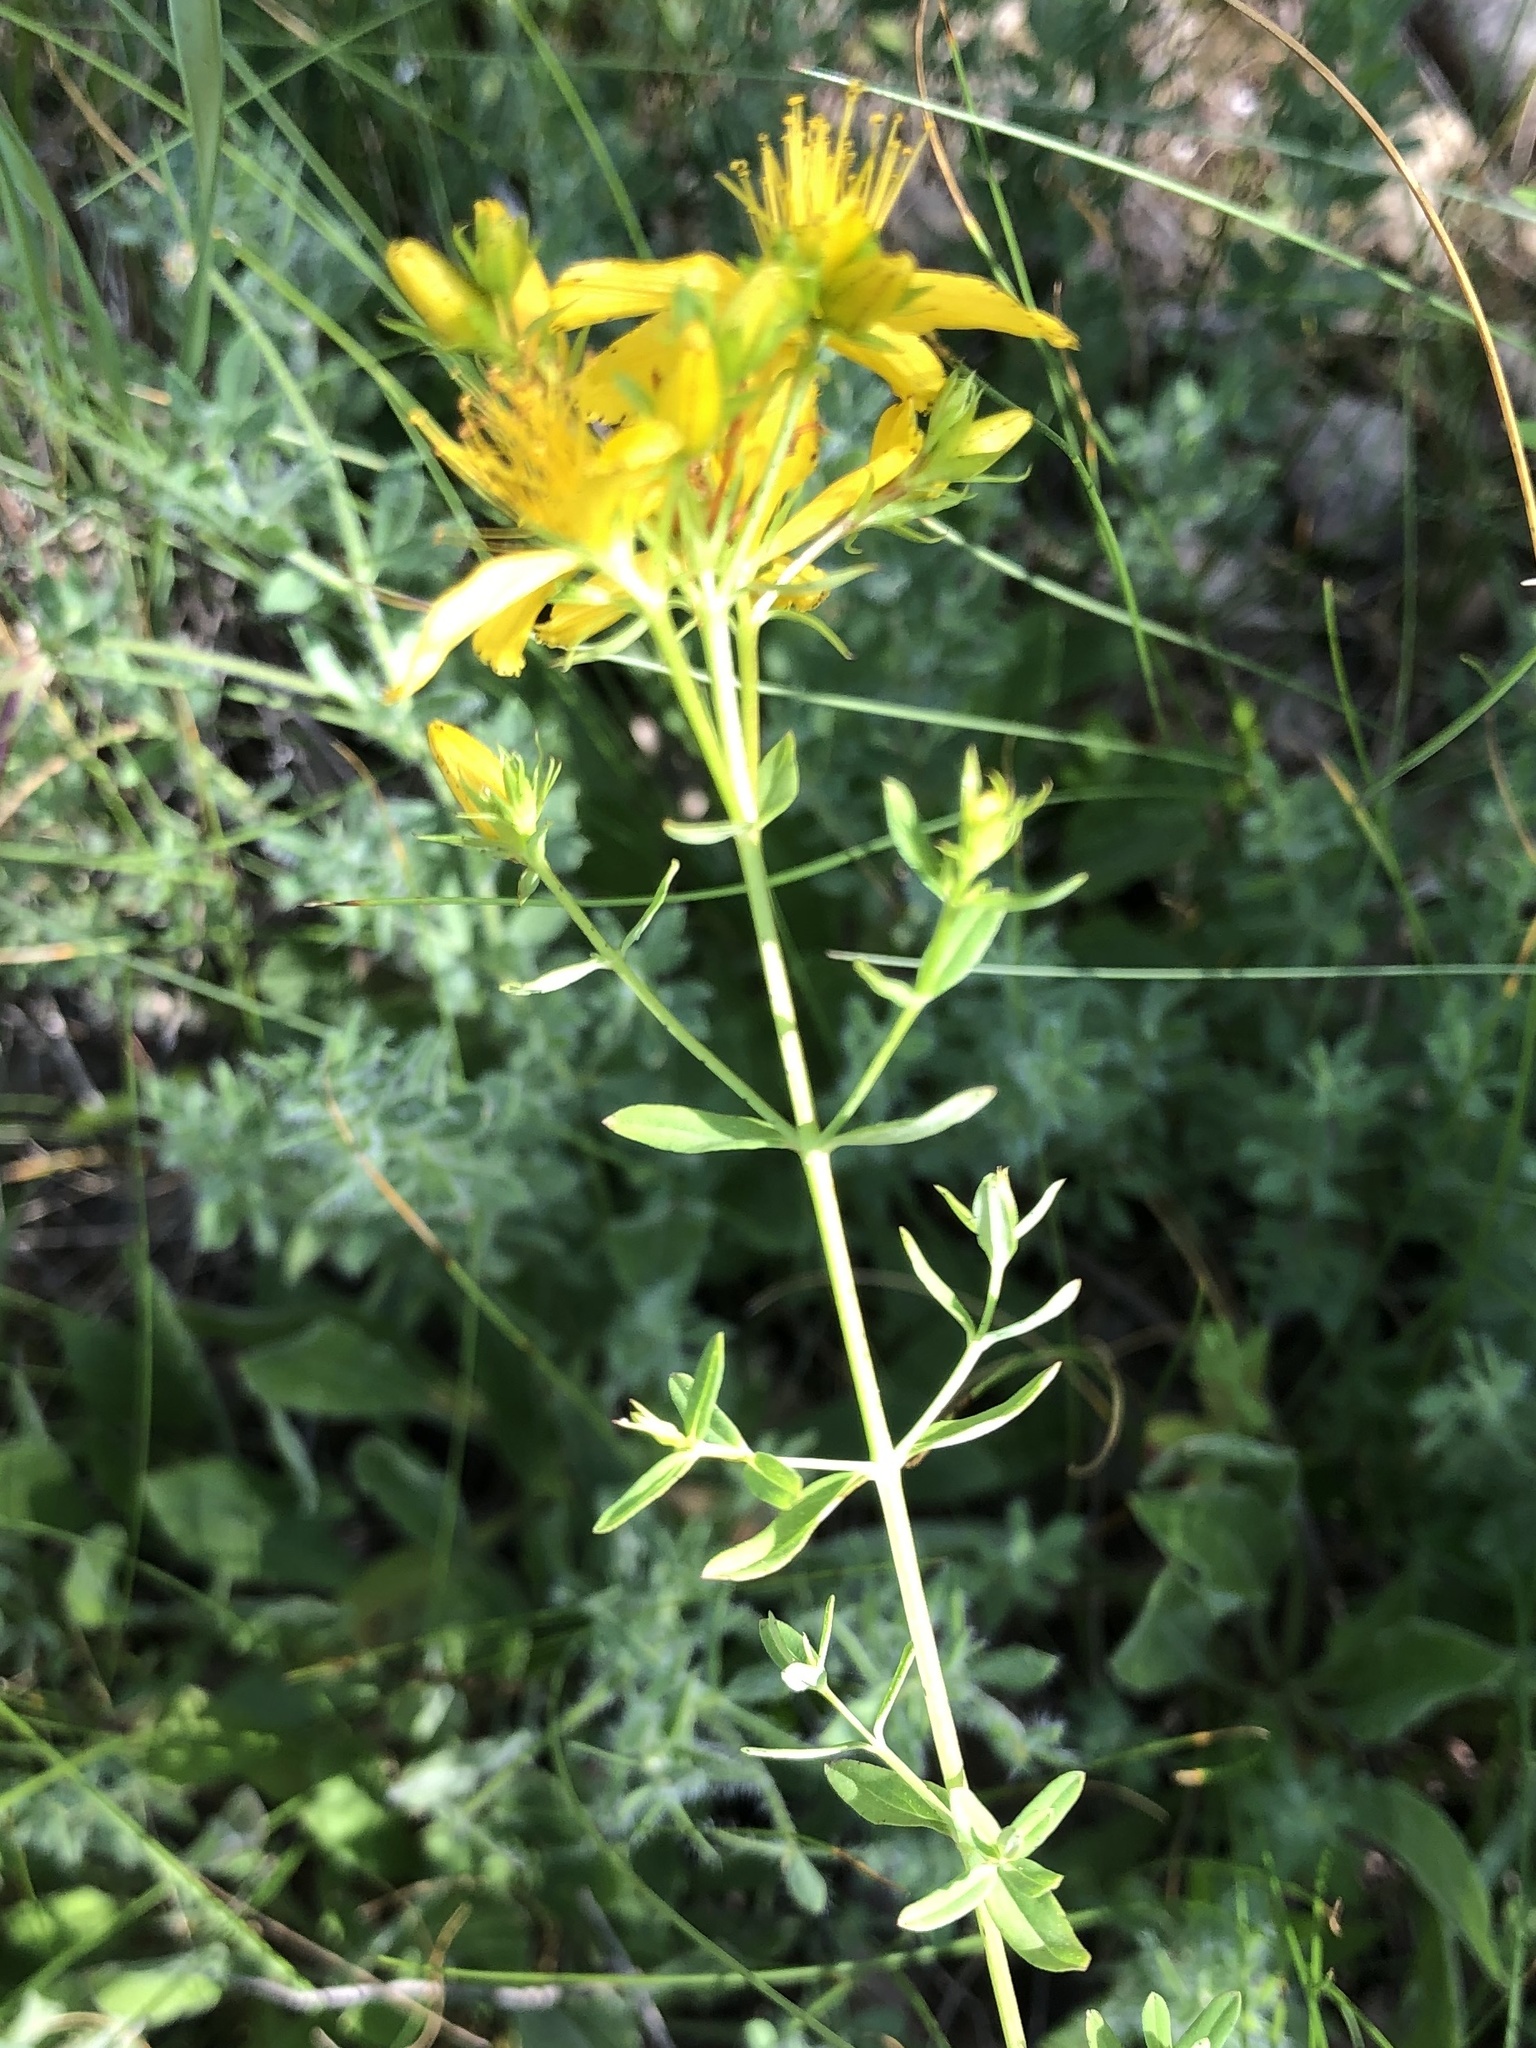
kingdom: Plantae
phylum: Tracheophyta
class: Magnoliopsida
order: Malpighiales
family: Hypericaceae
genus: Hypericum
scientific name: Hypericum perforatum
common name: Common st. johnswort
